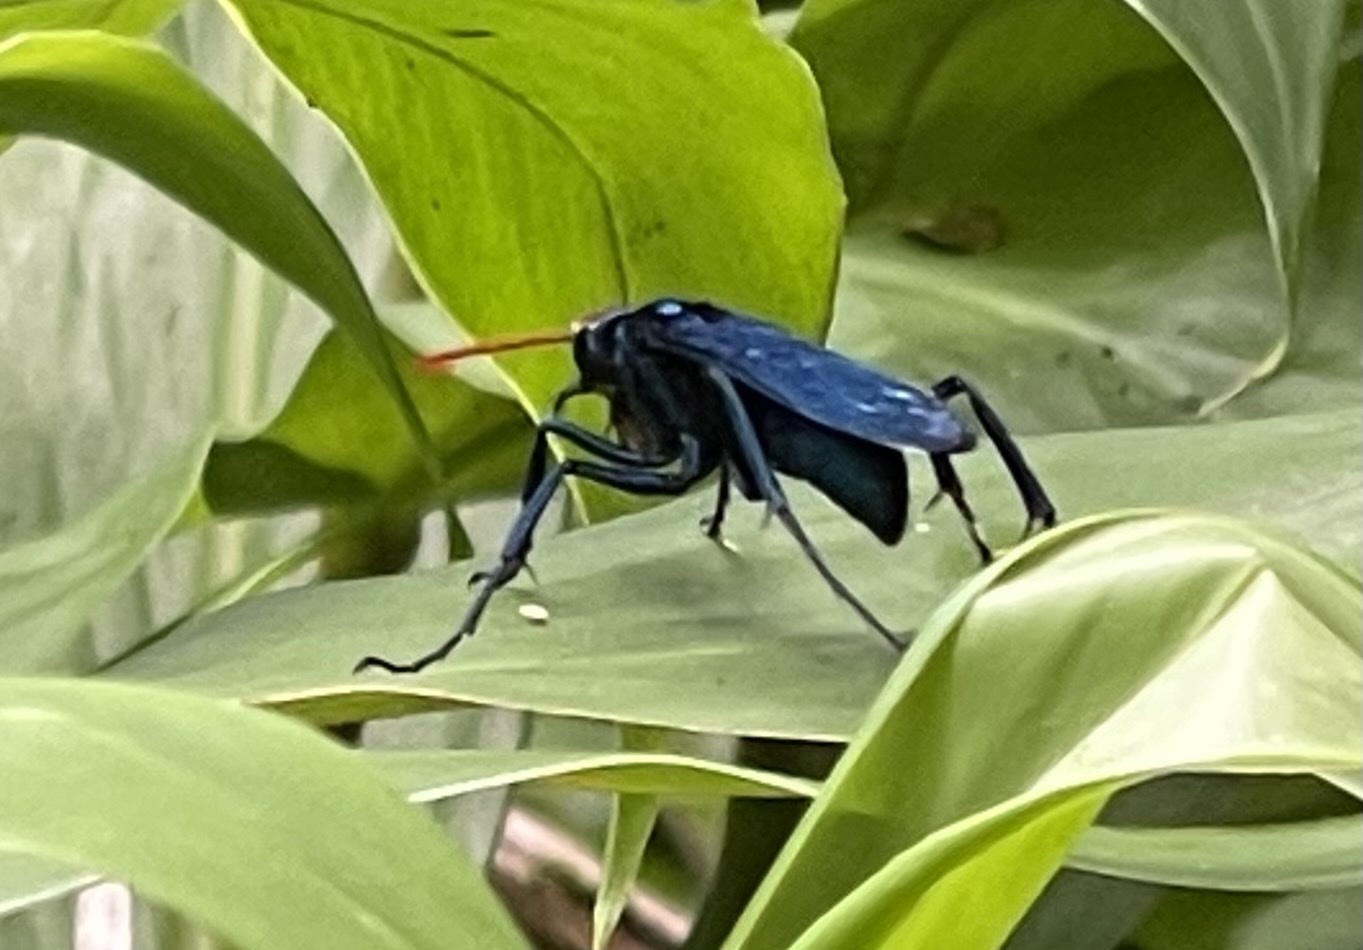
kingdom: Animalia
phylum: Arthropoda
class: Insecta
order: Hymenoptera
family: Pompilidae
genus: Pepsis
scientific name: Pepsis ruficornis
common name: Orange-horned tarantula hawk
